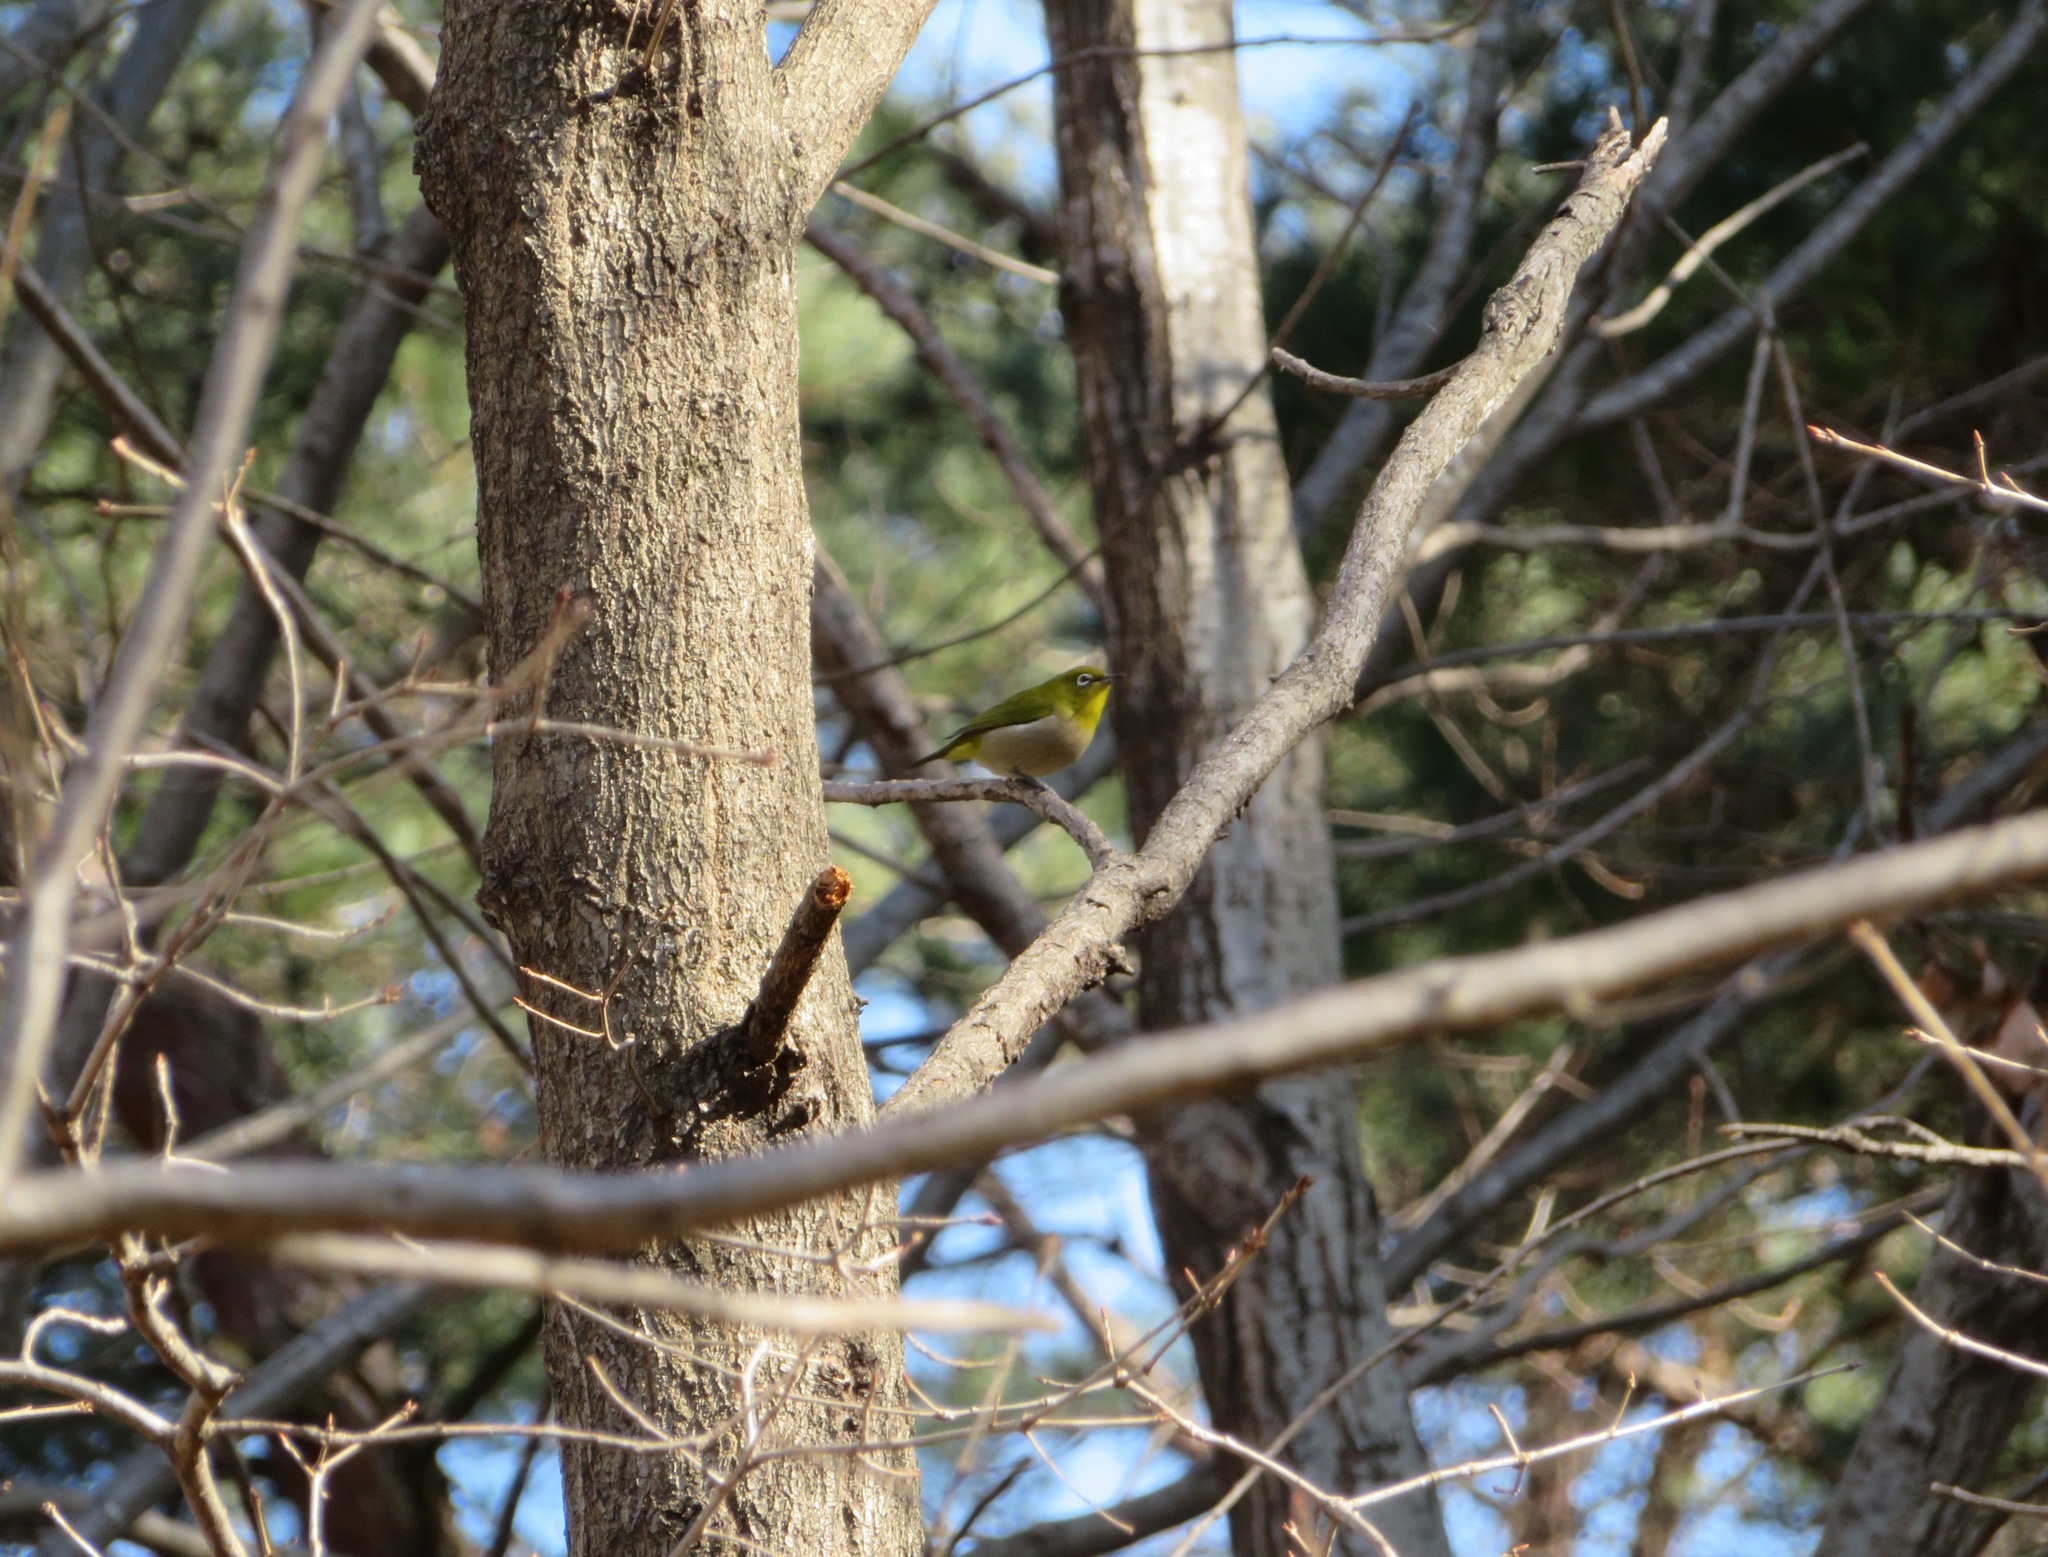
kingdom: Animalia
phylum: Chordata
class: Aves
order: Passeriformes
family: Zosteropidae
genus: Zosterops
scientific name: Zosterops japonicus
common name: Japanese white-eye
